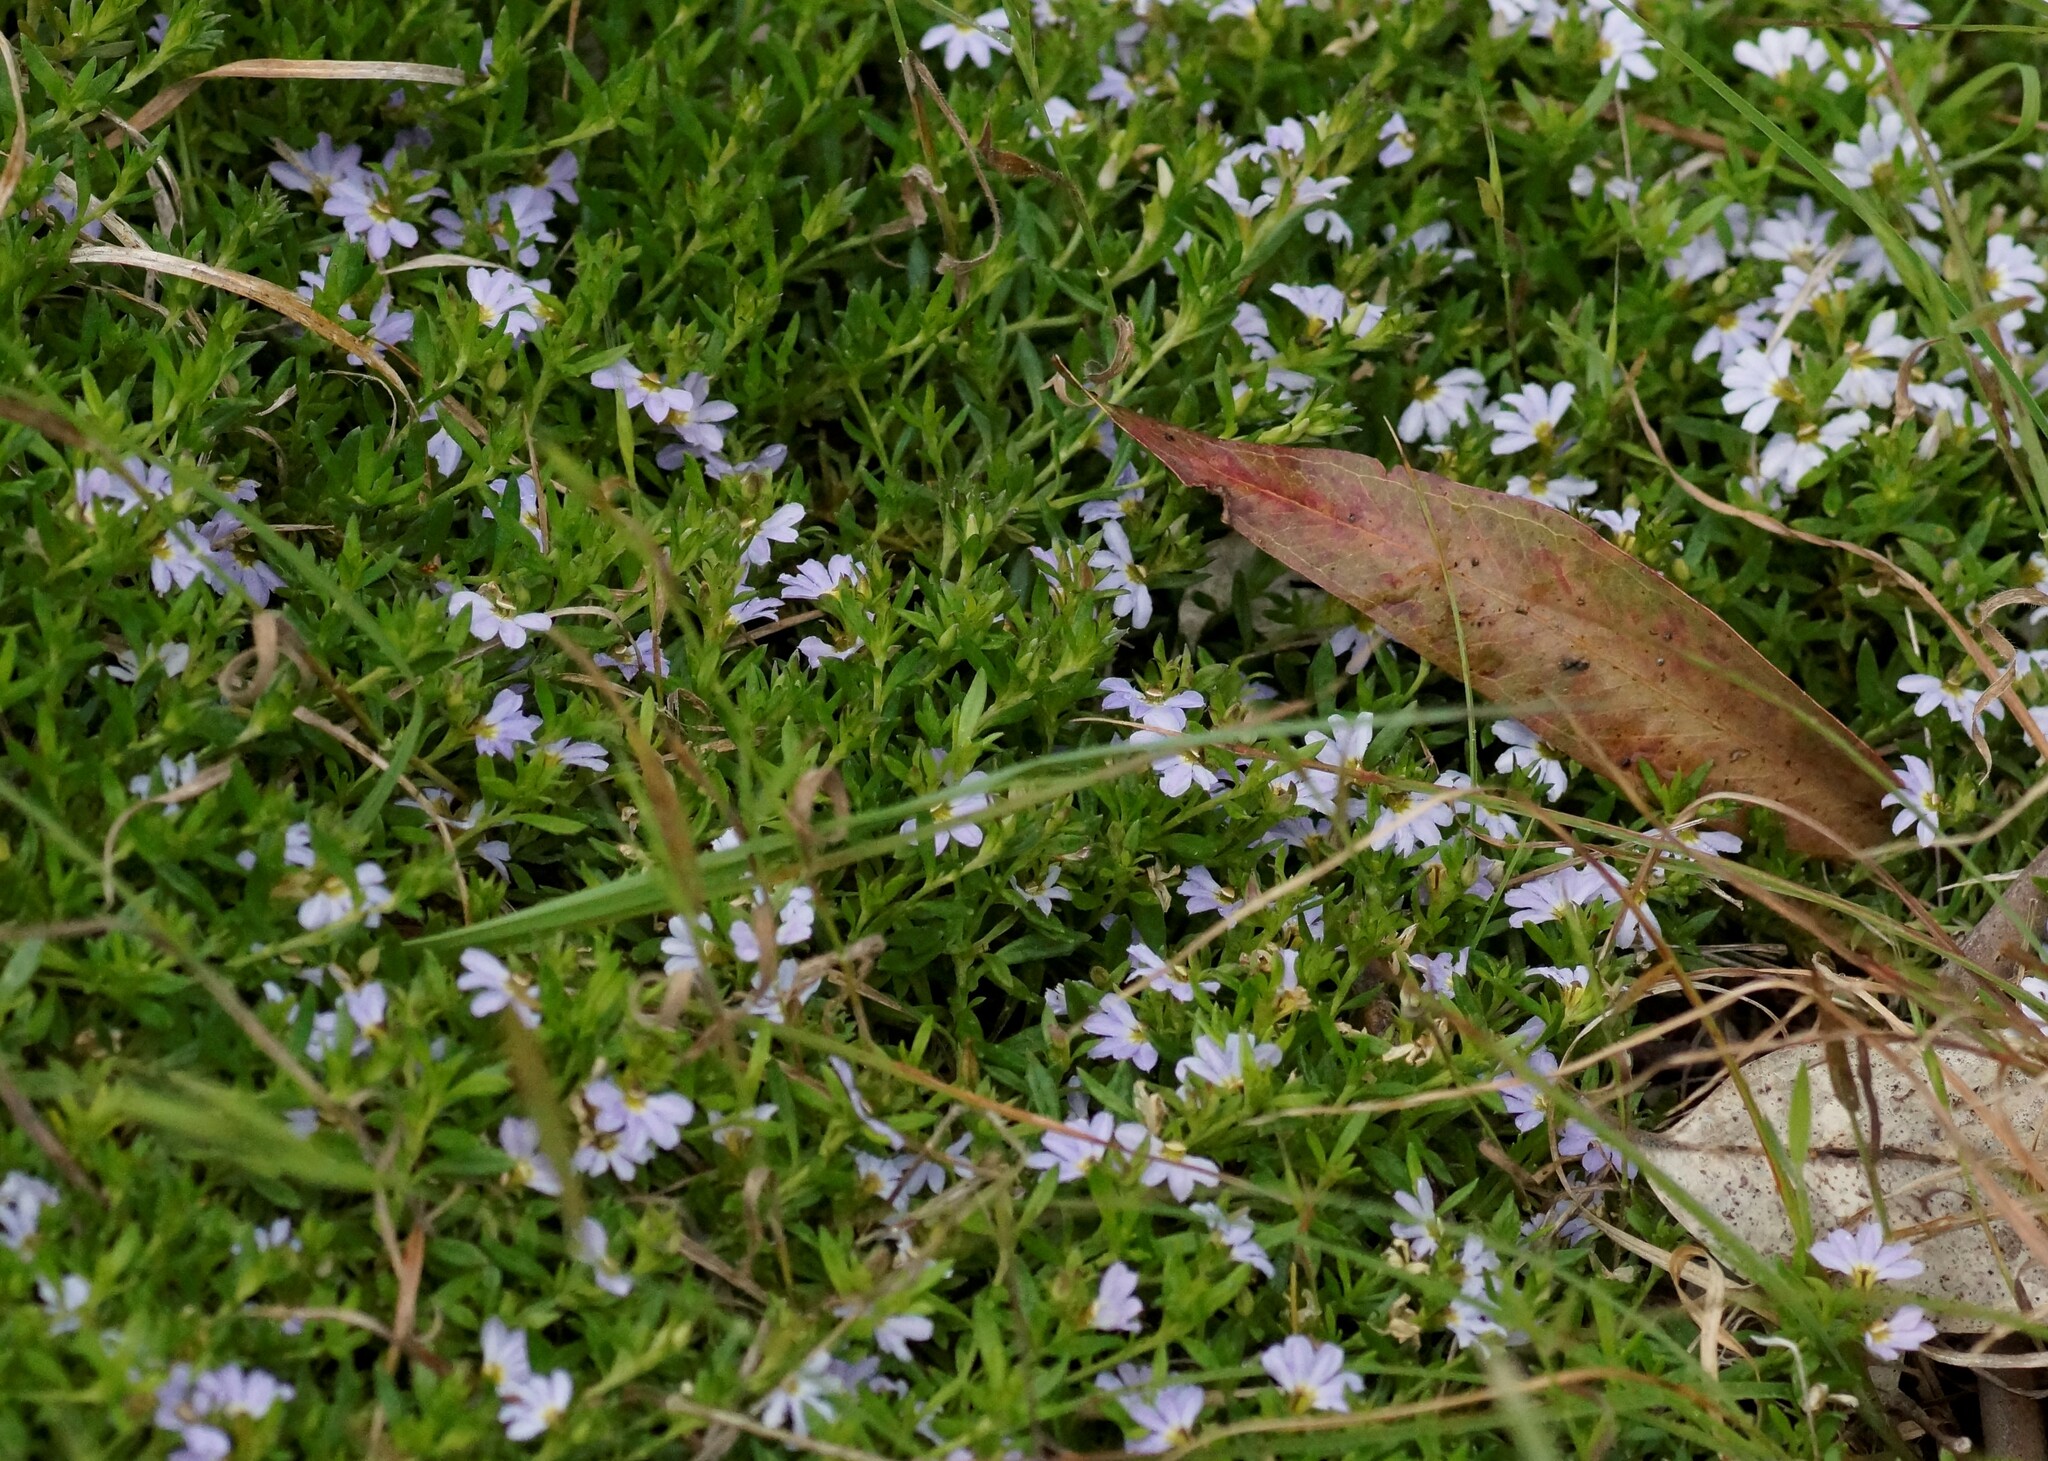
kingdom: Plantae
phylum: Tracheophyta
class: Magnoliopsida
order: Asterales
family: Goodeniaceae
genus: Scaevola
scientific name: Scaevola albida
